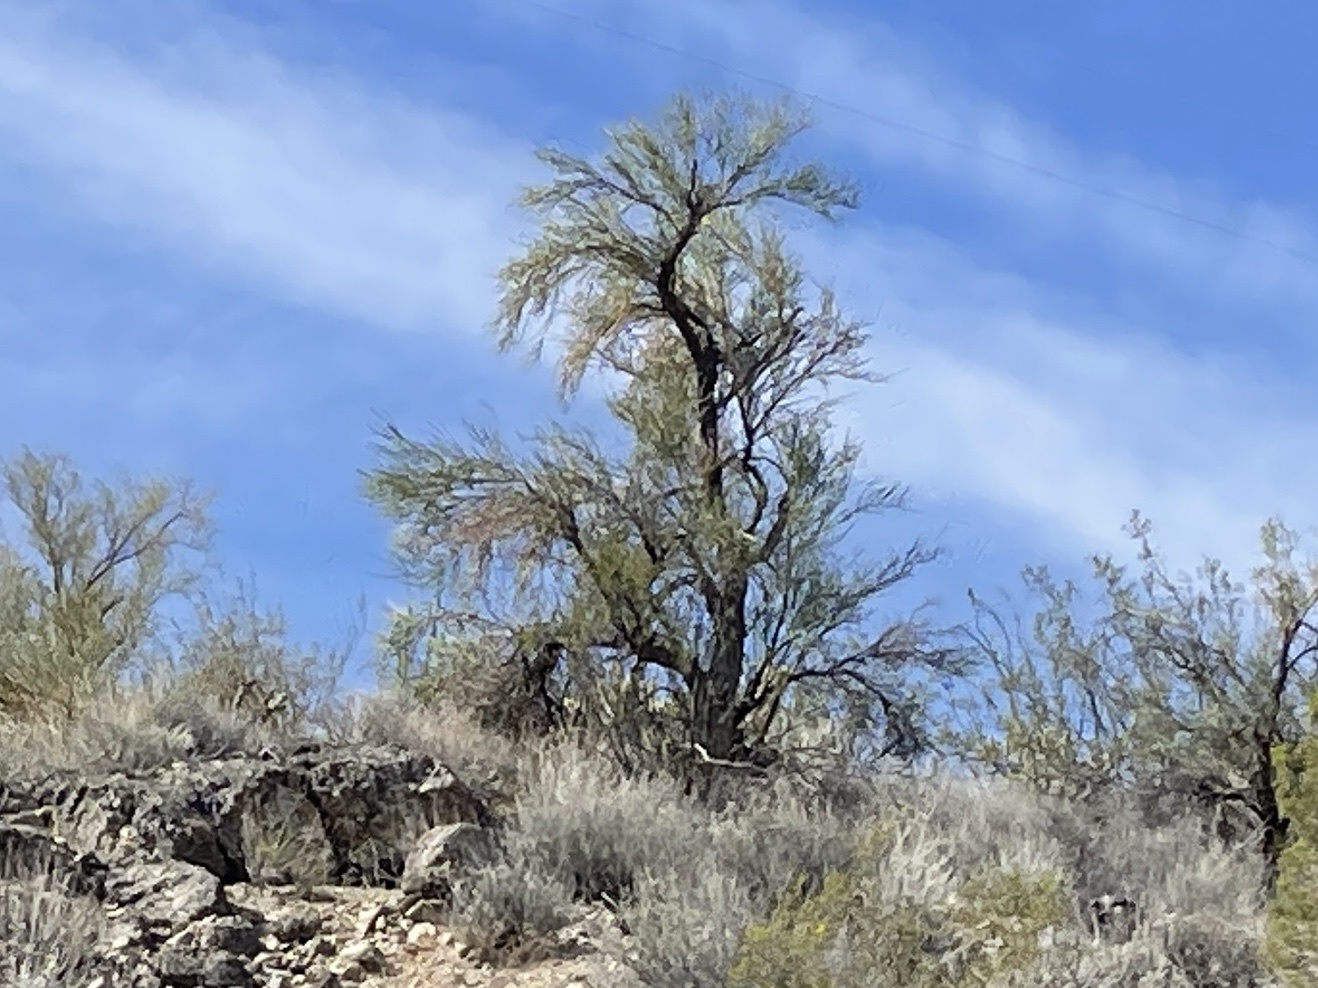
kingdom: Plantae
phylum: Tracheophyta
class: Magnoliopsida
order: Celastrales
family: Celastraceae
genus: Canotia
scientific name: Canotia holacantha
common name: Crucifixion thorns
